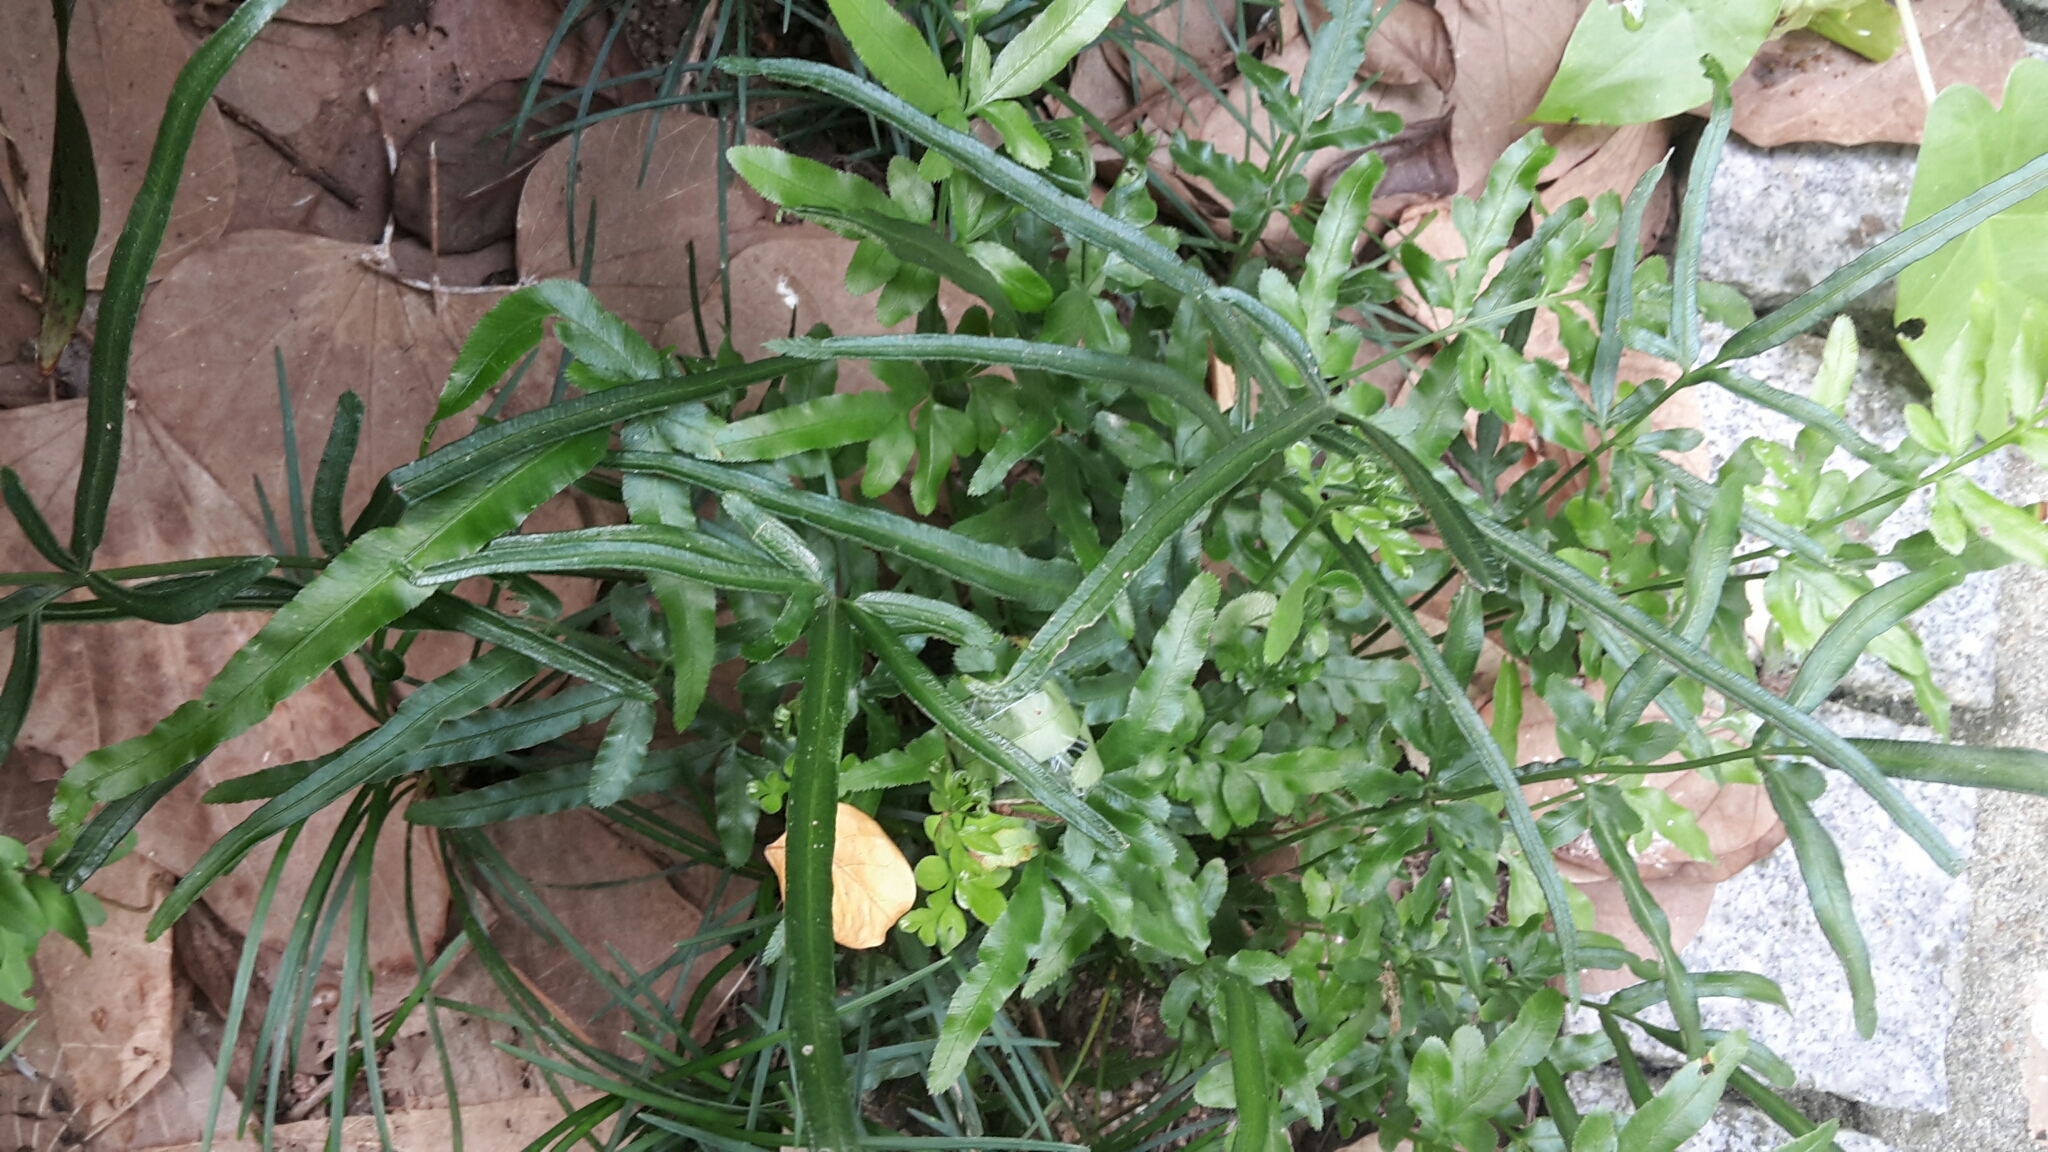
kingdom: Plantae
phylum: Tracheophyta
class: Polypodiopsida
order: Polypodiales
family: Pteridaceae
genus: Pteris
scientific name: Pteris ensiformis
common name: Sword brake
